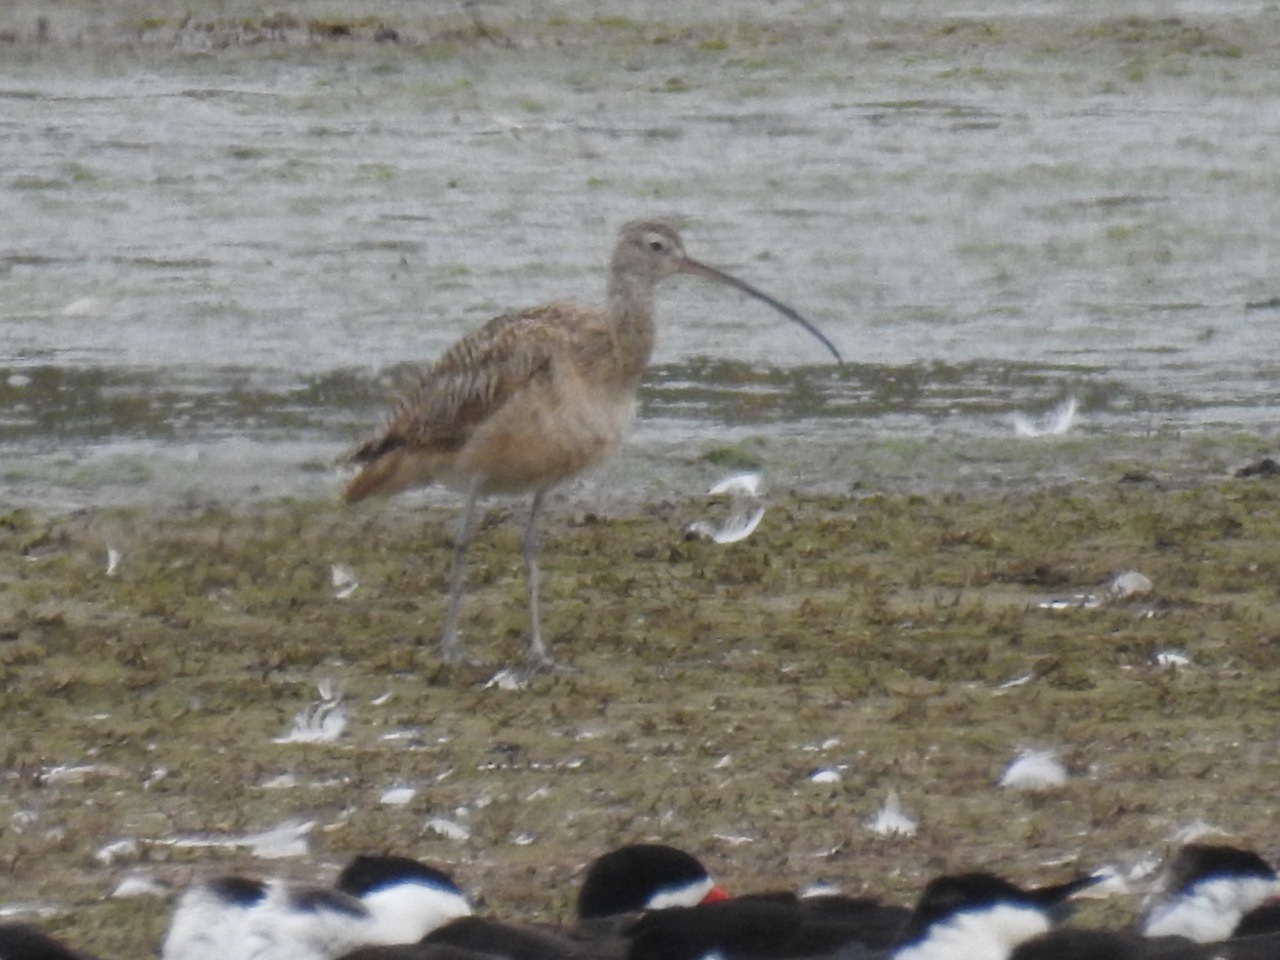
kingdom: Animalia
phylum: Chordata
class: Aves
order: Charadriiformes
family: Scolopacidae
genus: Numenius
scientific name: Numenius americanus
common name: Long-billed curlew
